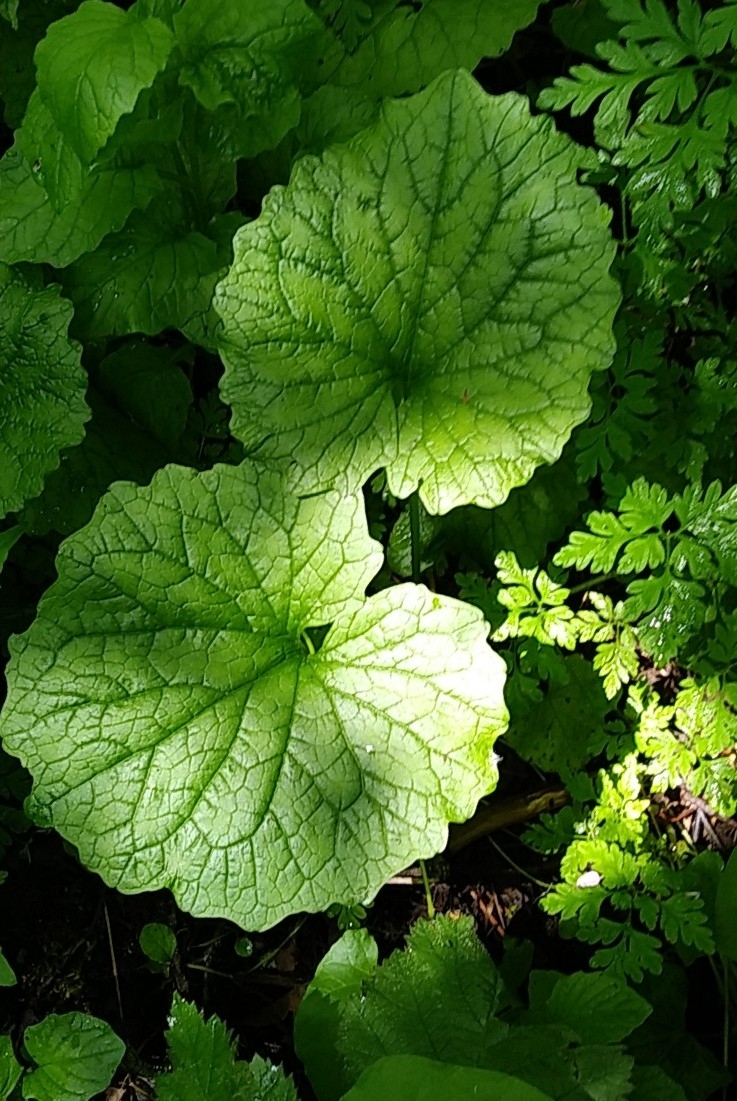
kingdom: Plantae
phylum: Tracheophyta
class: Magnoliopsida
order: Brassicales
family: Brassicaceae
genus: Alliaria
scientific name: Alliaria petiolata
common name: Garlic mustard
